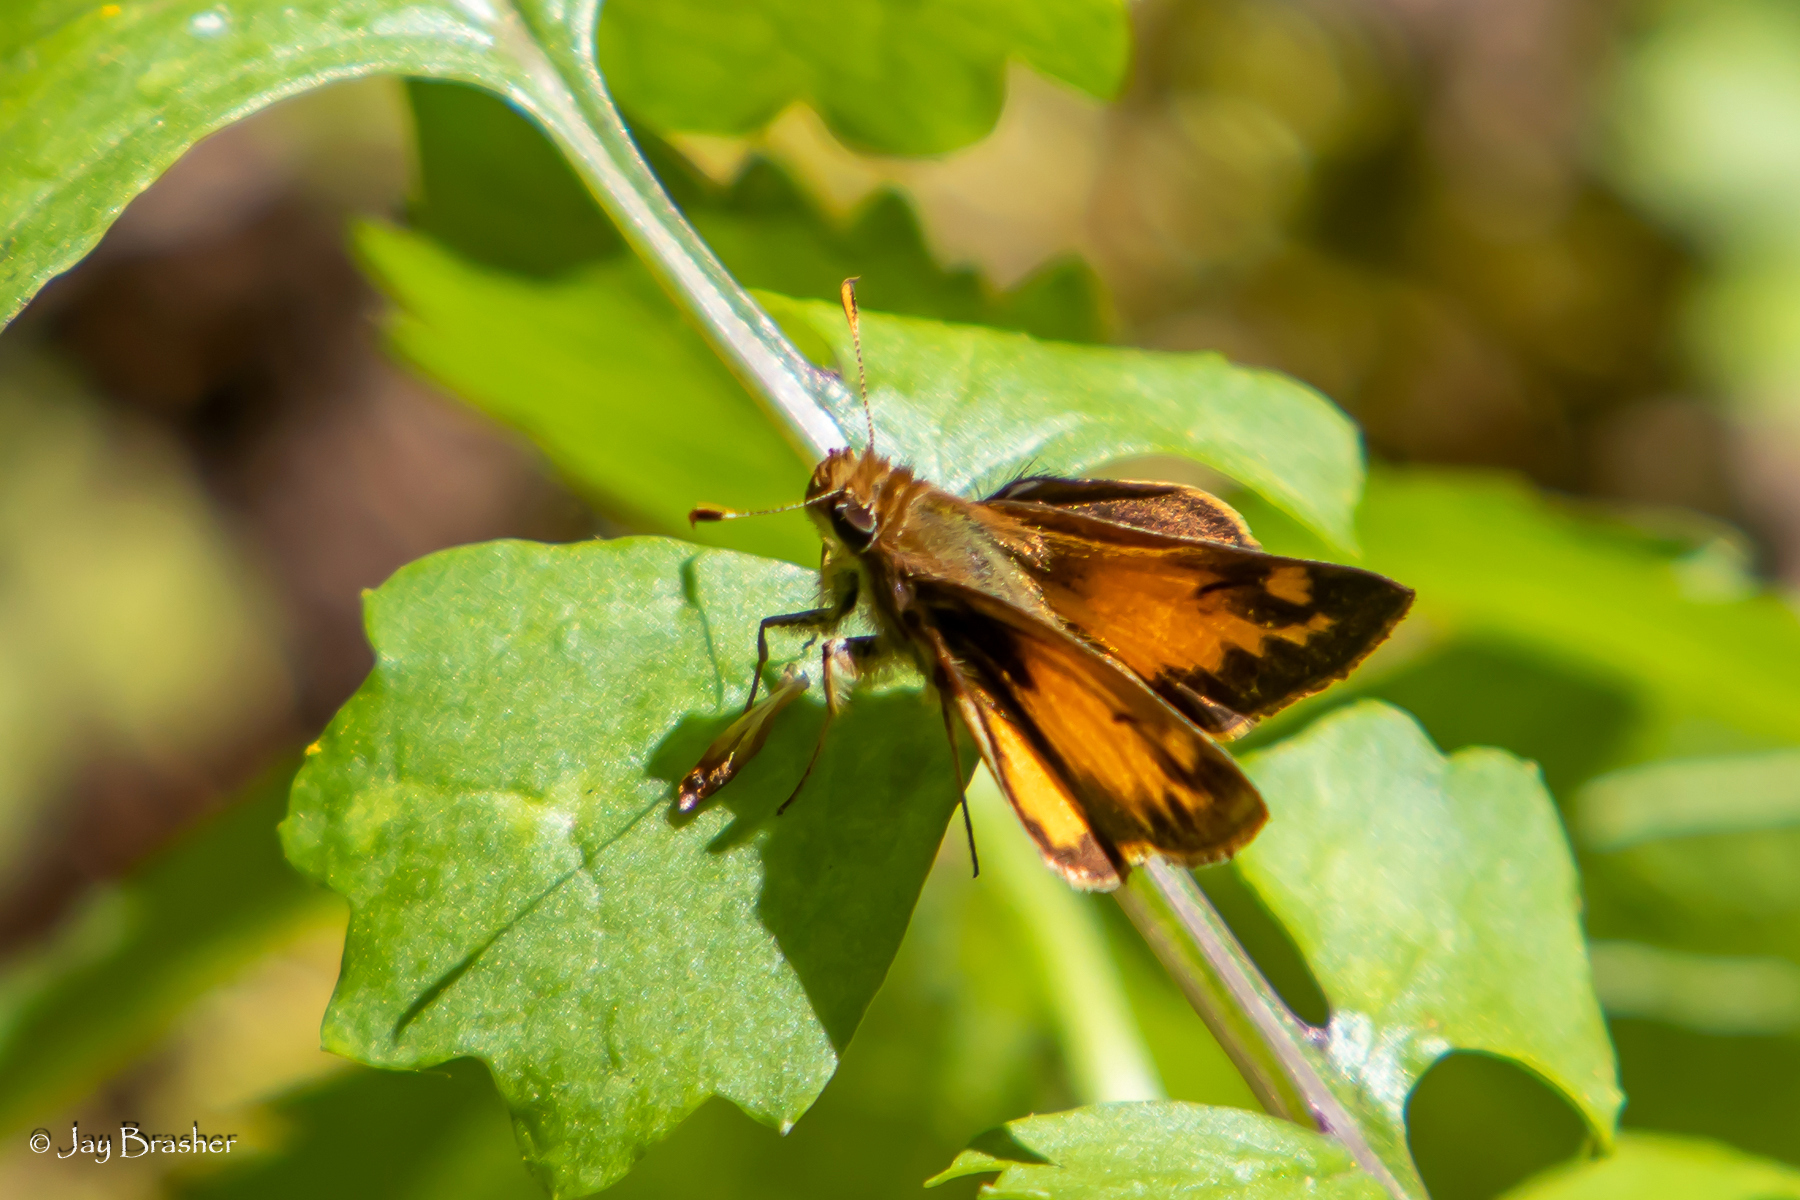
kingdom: Animalia
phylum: Arthropoda
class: Insecta
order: Lepidoptera
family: Hesperiidae
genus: Lon
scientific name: Lon zabulon
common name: Zabulon skipper
